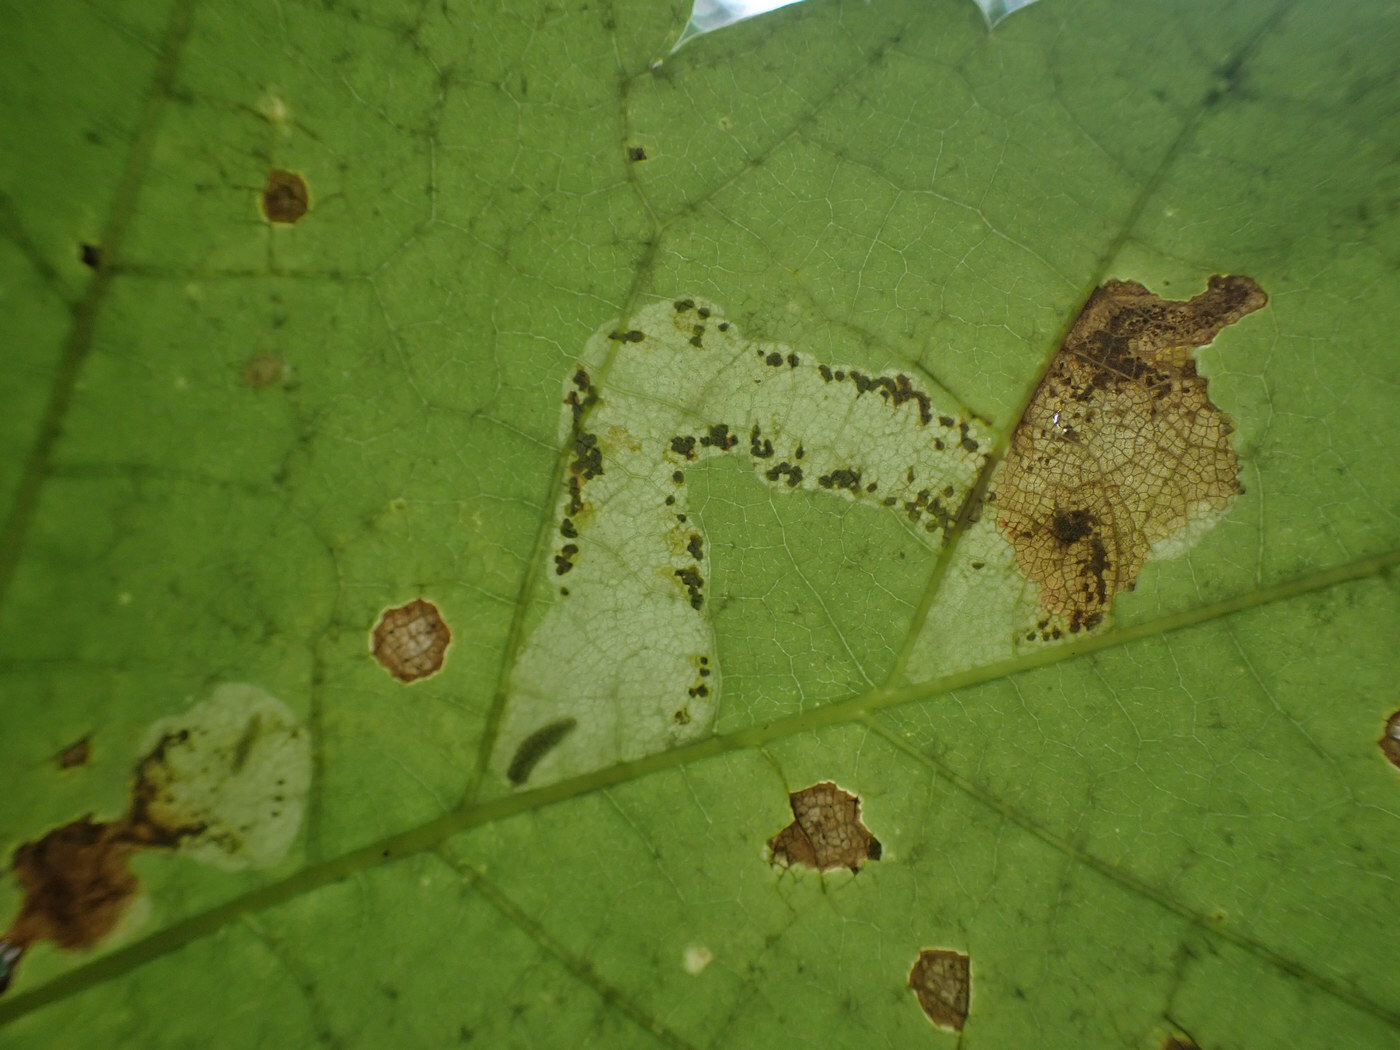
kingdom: Animalia
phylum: Arthropoda
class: Insecta
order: Lepidoptera
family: Gracillariidae
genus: Cameraria
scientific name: Cameraria aceriella
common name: Maple leafblotch miner
